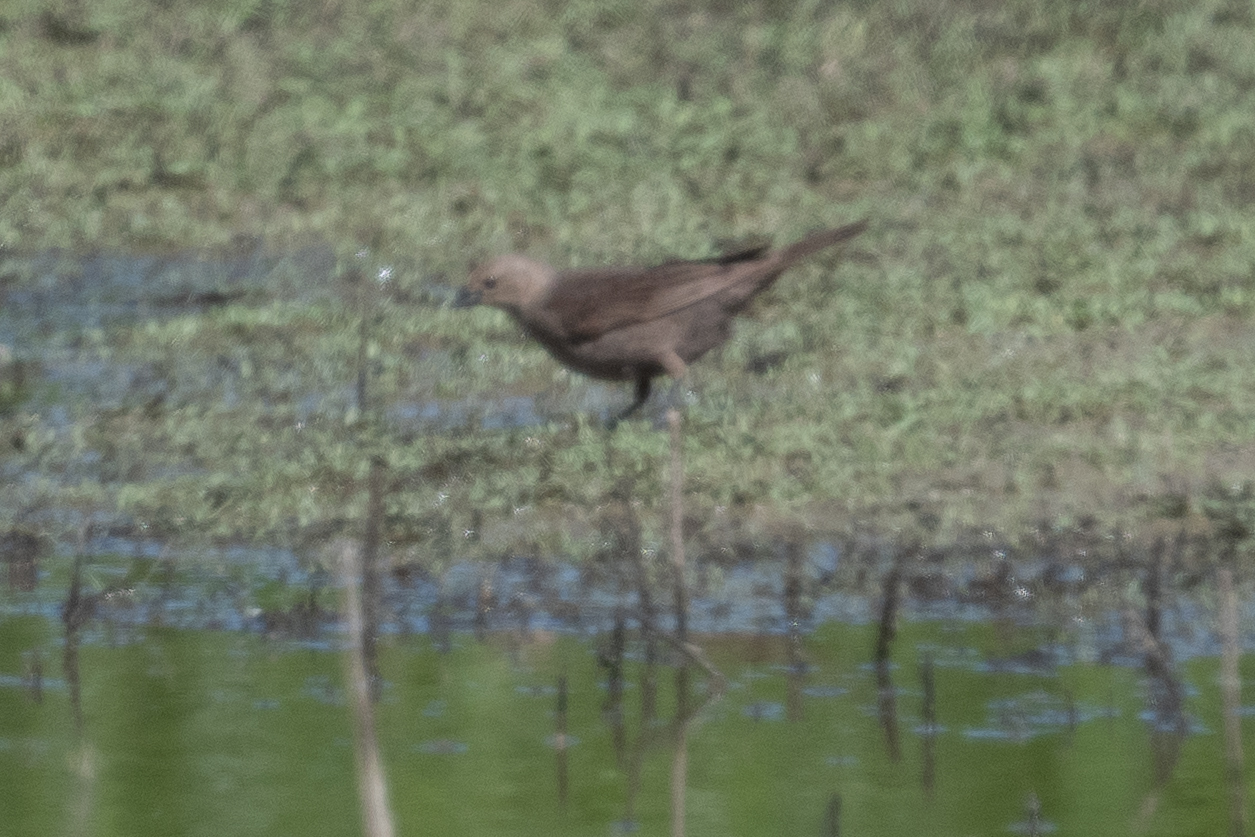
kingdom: Animalia
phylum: Chordata
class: Aves
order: Passeriformes
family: Icteridae
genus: Molothrus
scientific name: Molothrus ater
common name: Brown-headed cowbird
